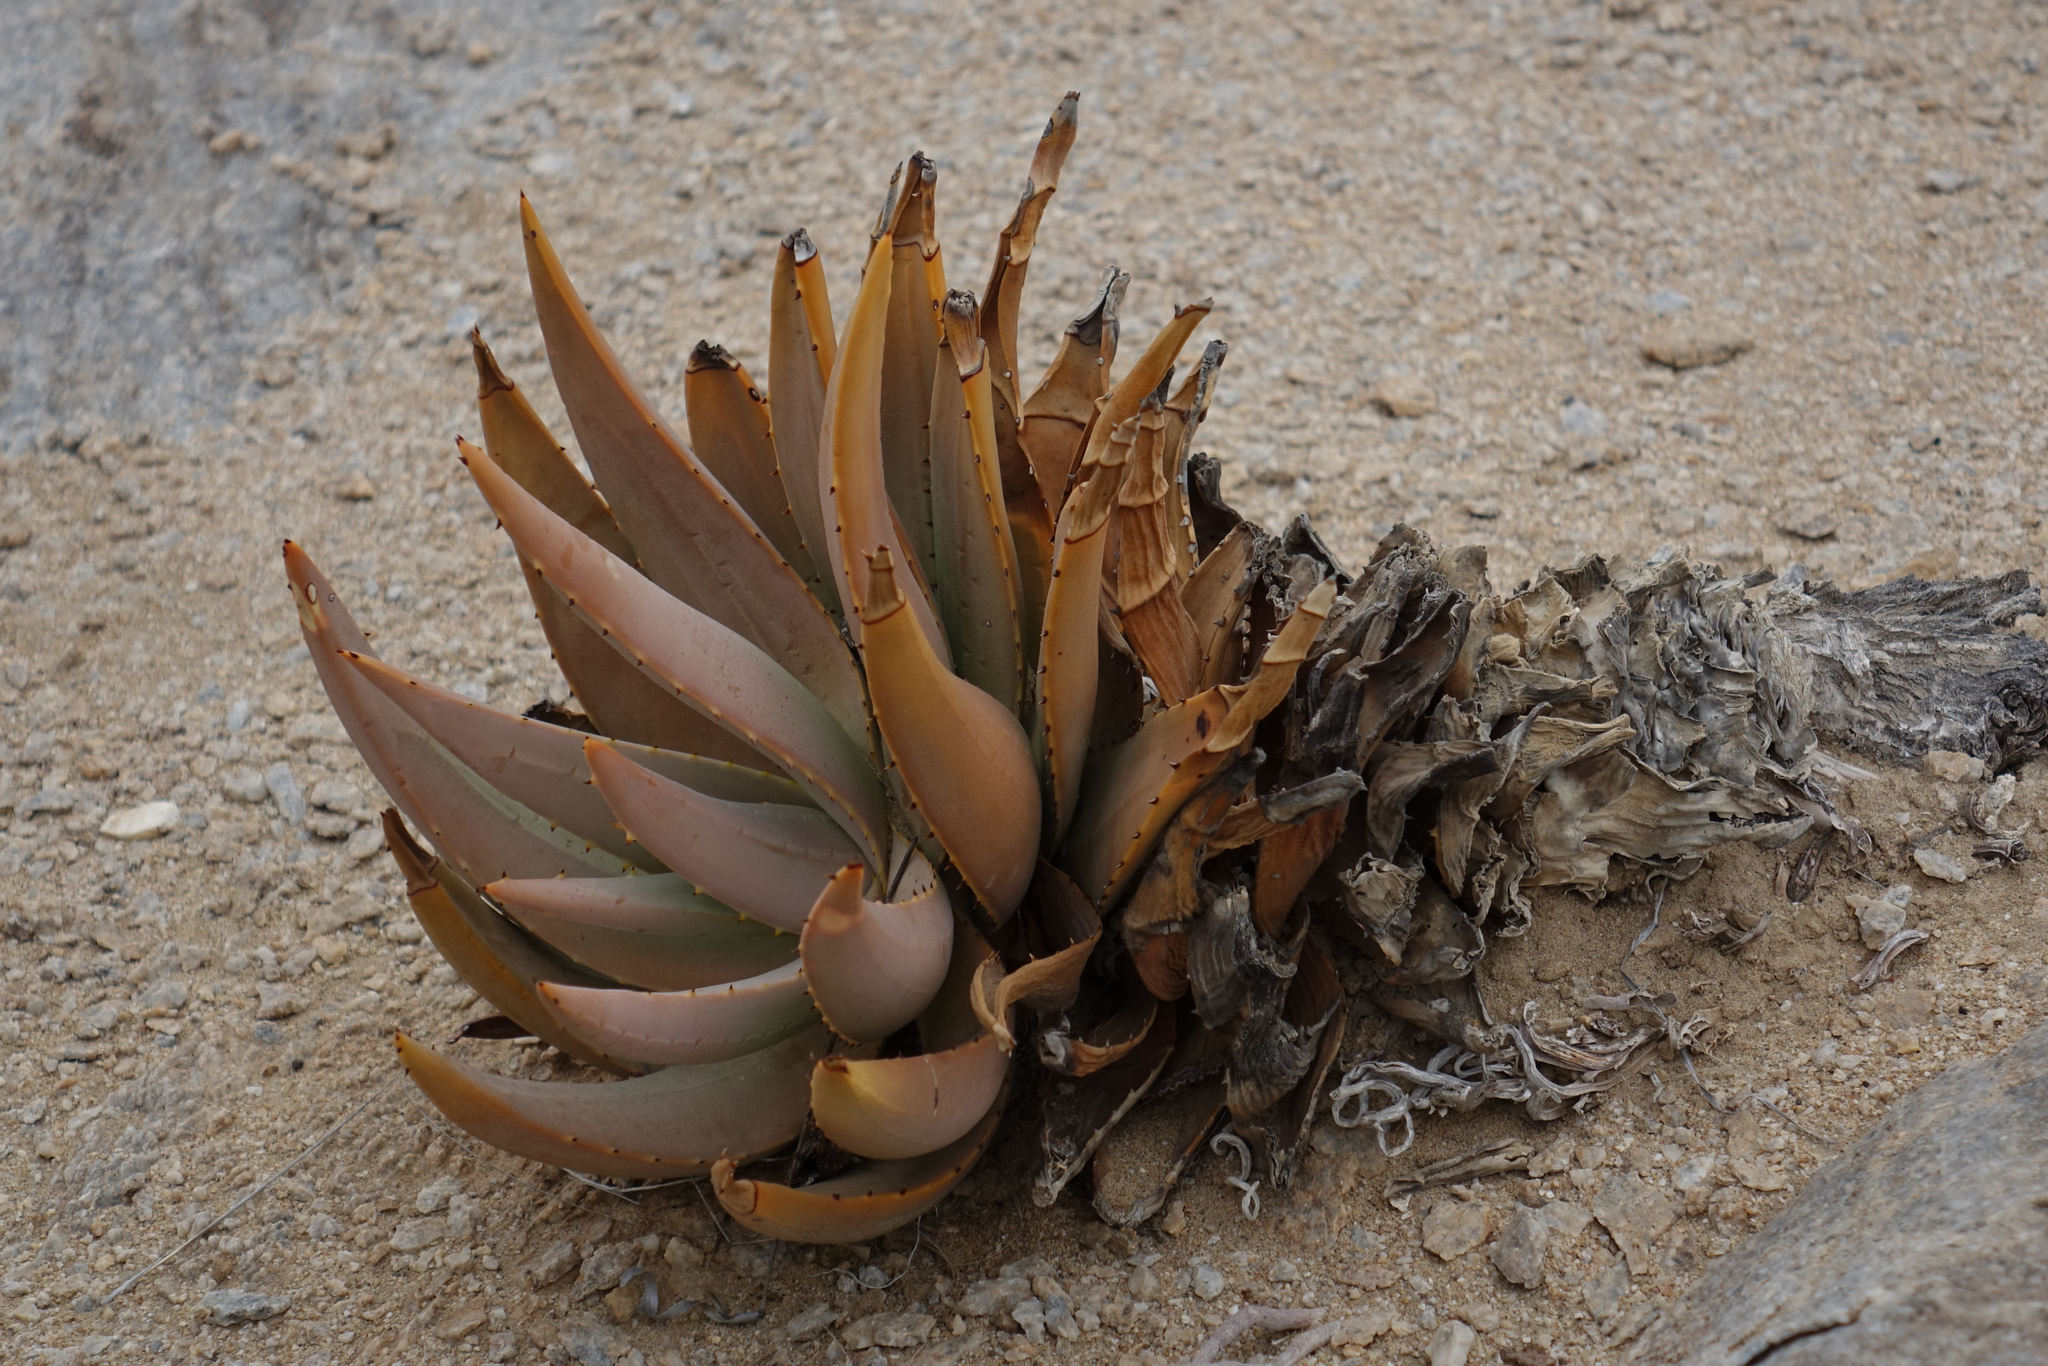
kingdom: Plantae
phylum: Tracheophyta
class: Liliopsida
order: Asparagales
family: Asphodelaceae
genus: Aloe
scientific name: Aloe asperifolia
